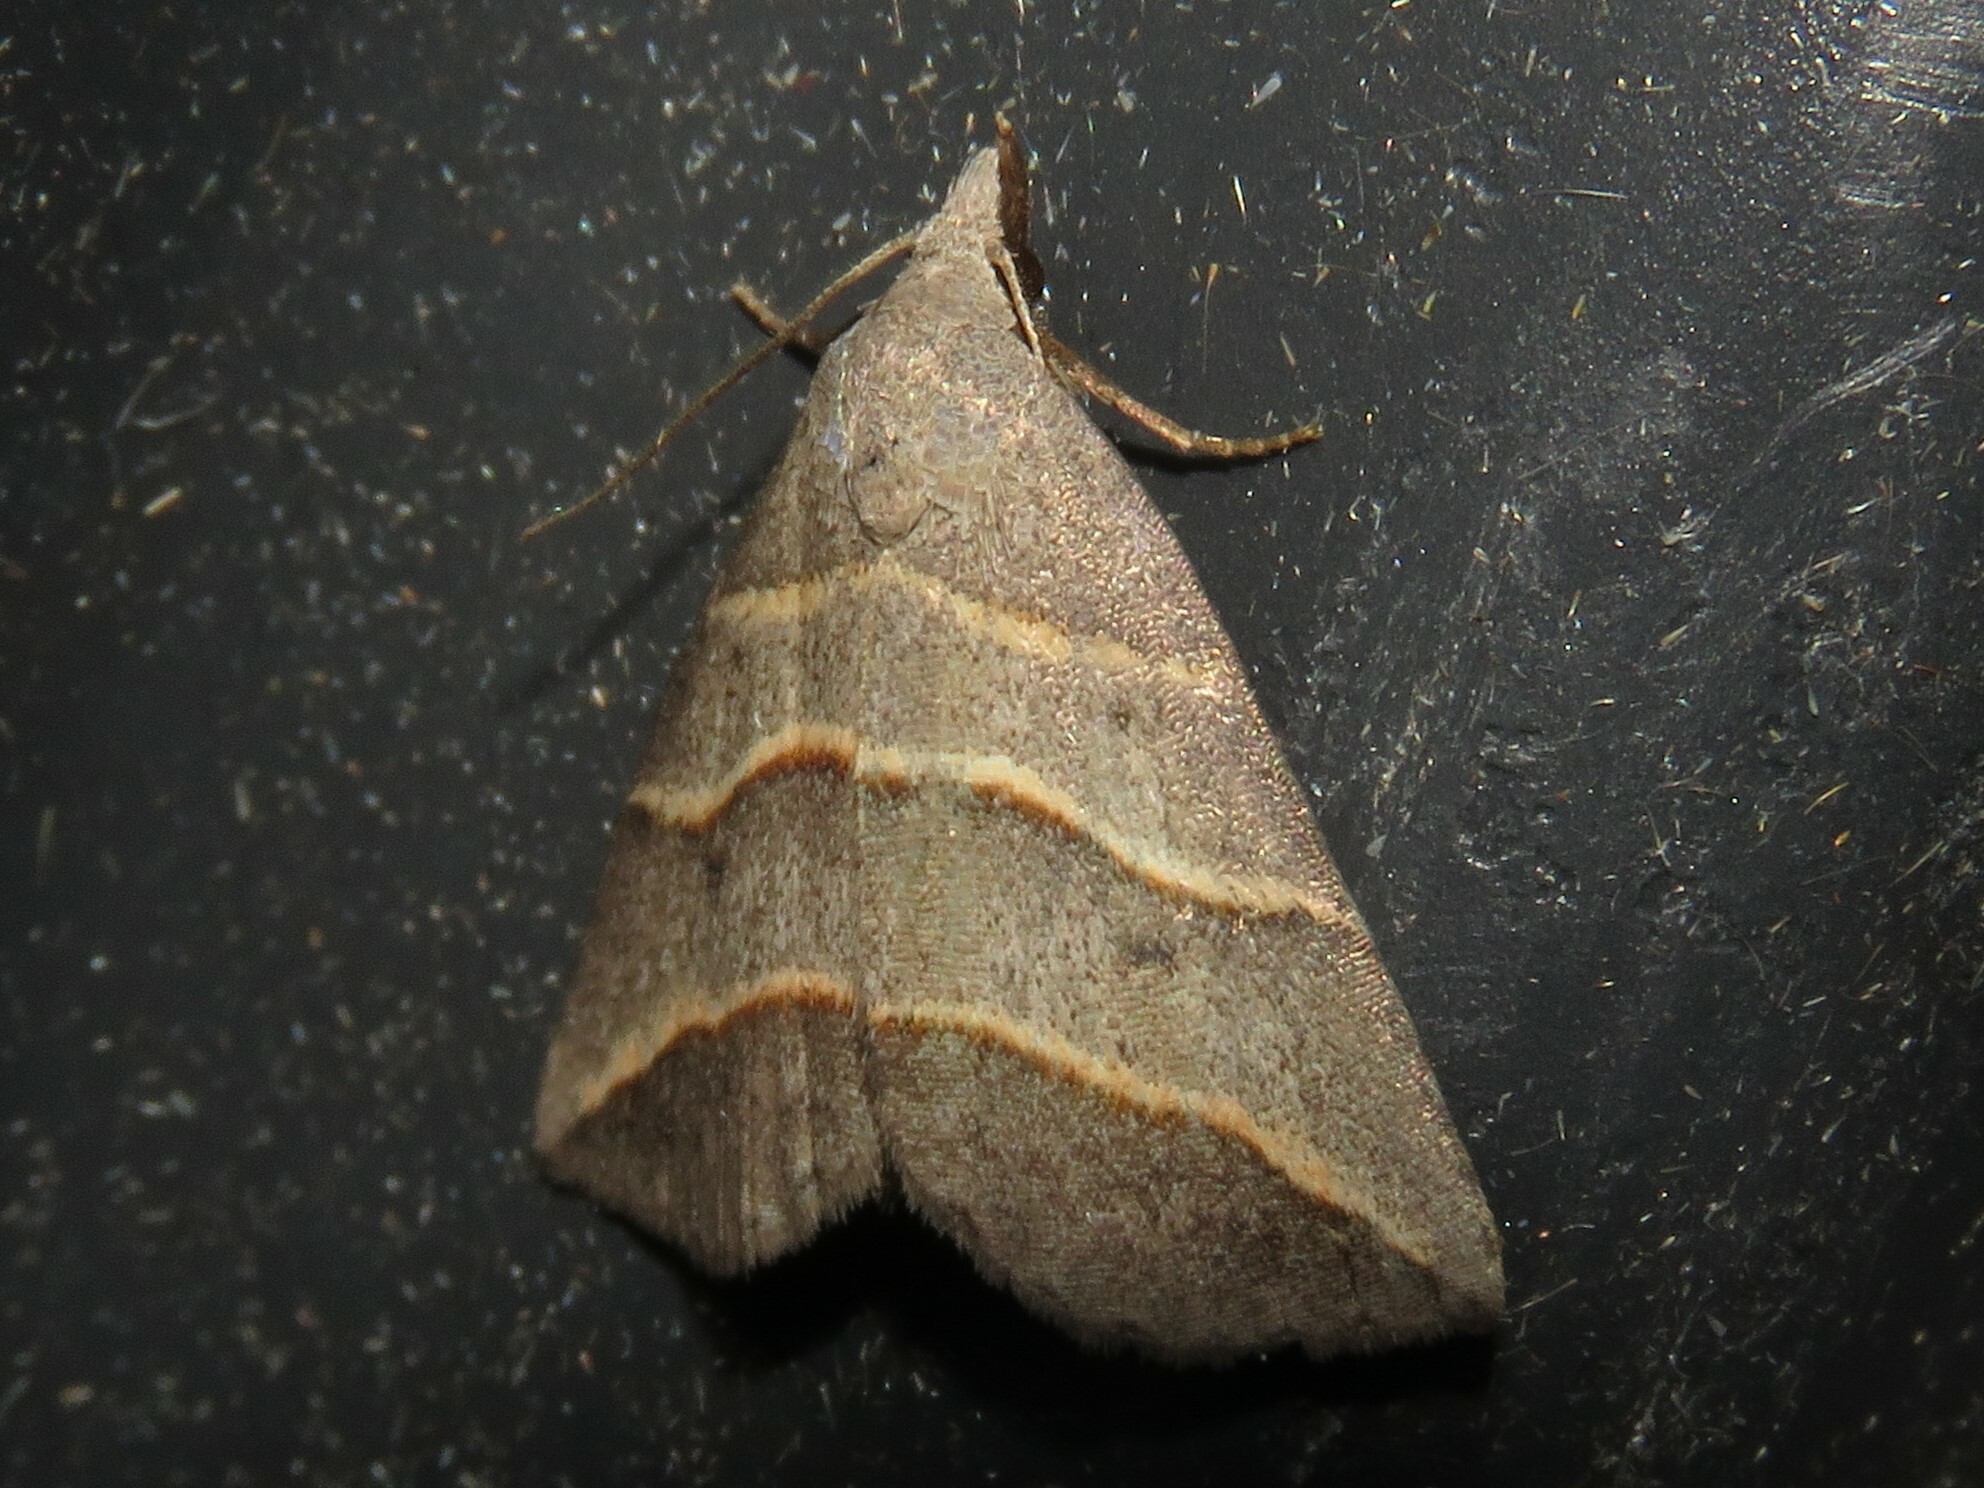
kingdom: Animalia
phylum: Arthropoda
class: Insecta
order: Lepidoptera
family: Erebidae
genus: Colobochyla
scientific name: Colobochyla interpuncta
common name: Yellow-lined owlet
